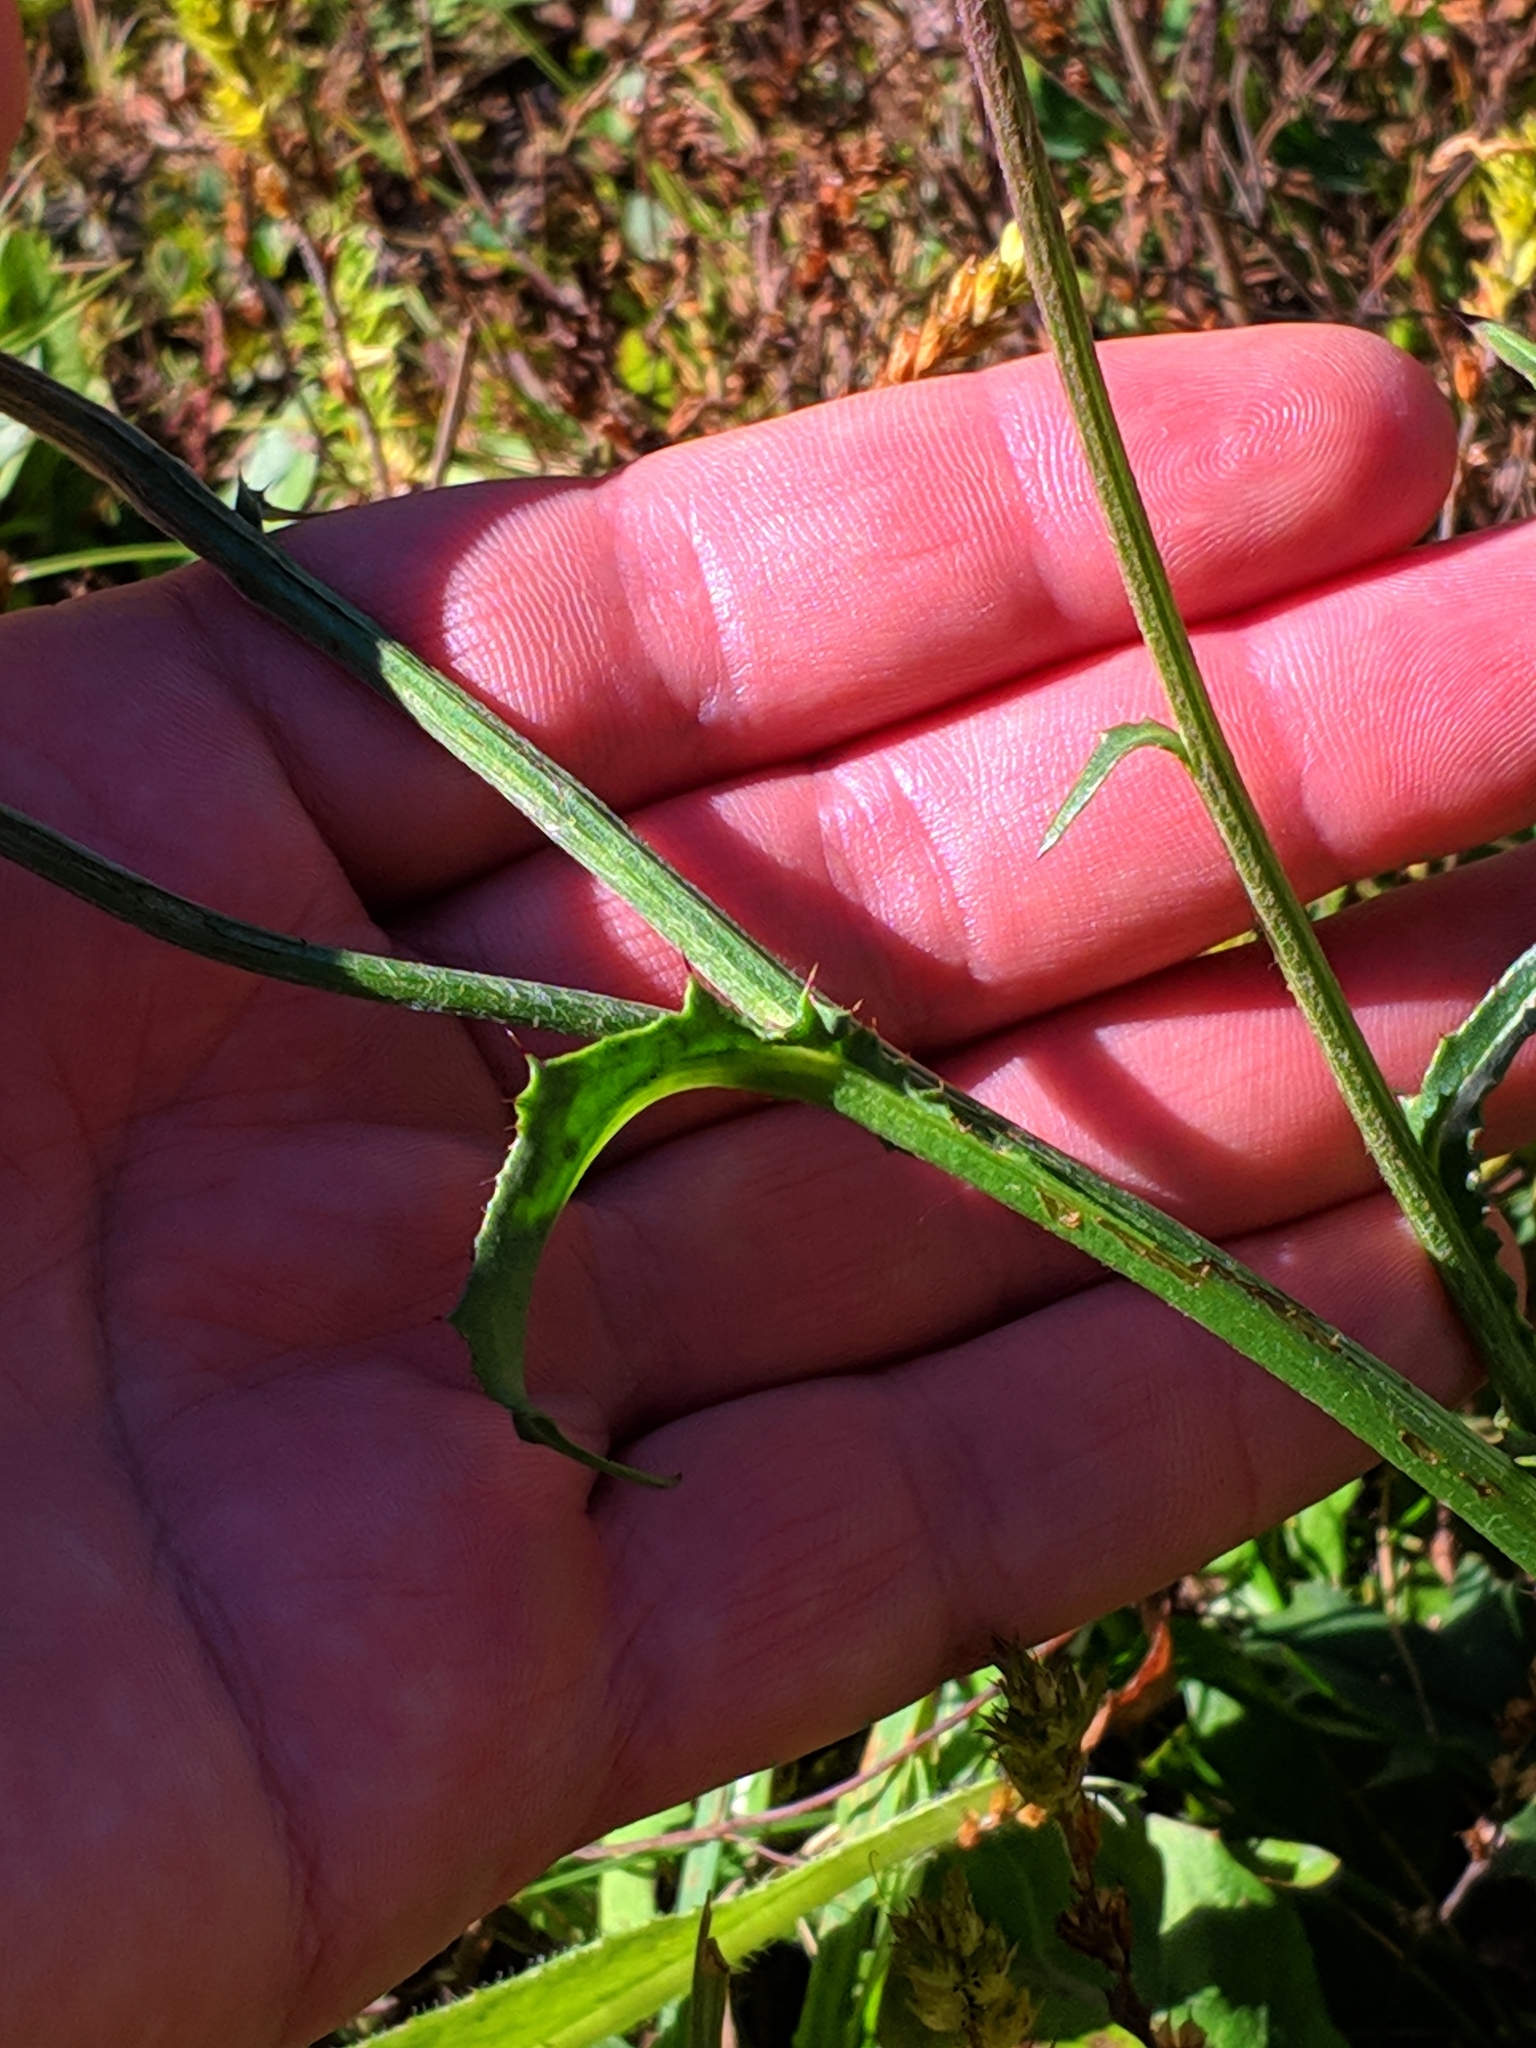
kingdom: Plantae
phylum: Tracheophyta
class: Magnoliopsida
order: Asterales
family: Asteraceae
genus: Carduus
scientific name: Carduus defloratus
